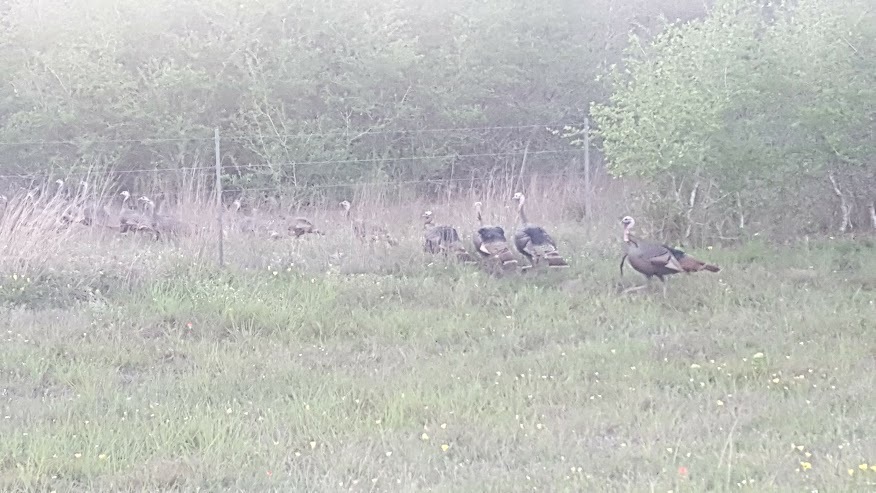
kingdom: Animalia
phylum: Chordata
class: Aves
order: Galliformes
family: Phasianidae
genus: Meleagris
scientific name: Meleagris gallopavo
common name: Wild turkey
